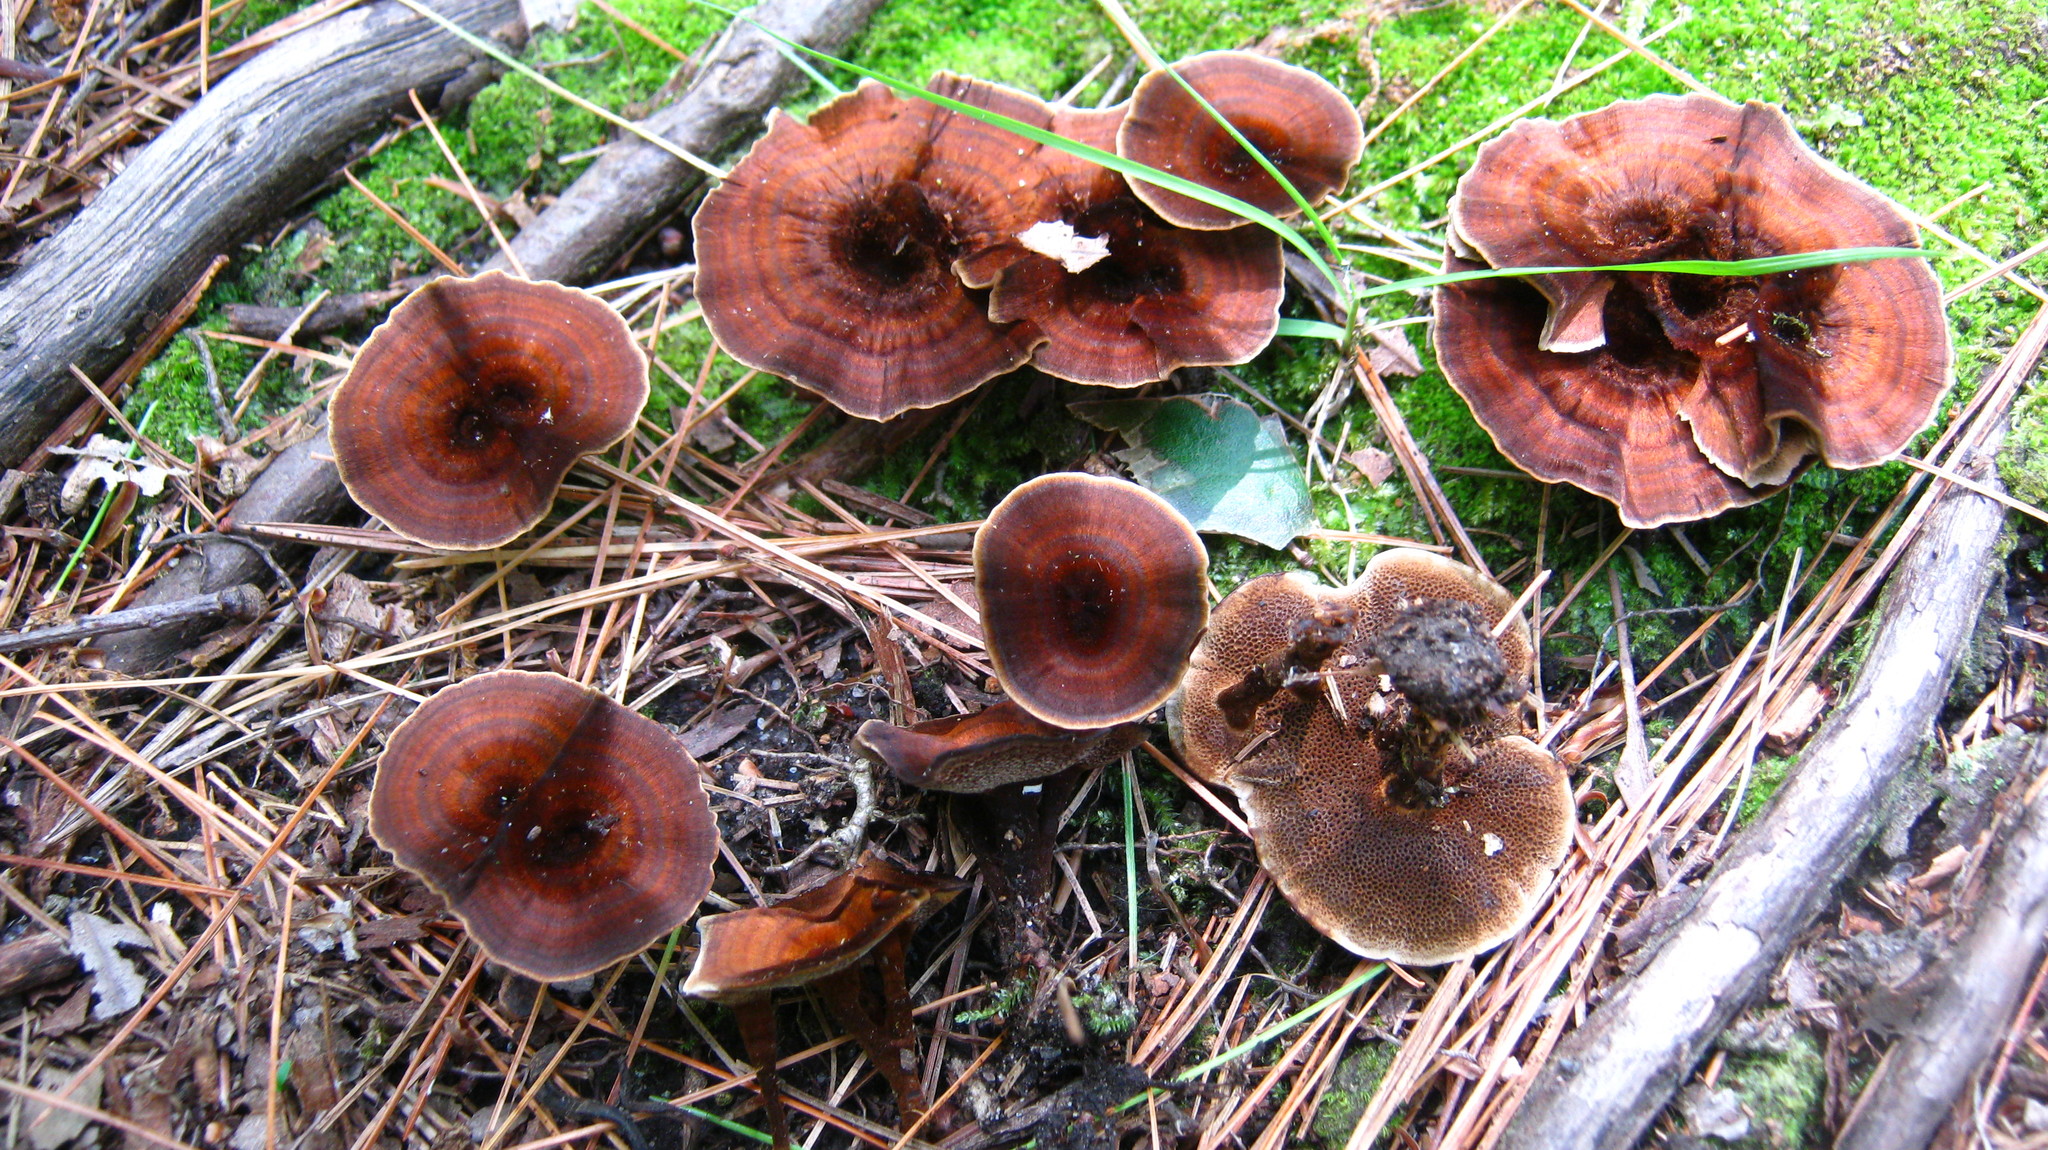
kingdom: Fungi
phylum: Basidiomycota
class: Agaricomycetes
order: Hymenochaetales
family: Hymenochaetaceae
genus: Coltricia
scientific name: Coltricia cinnamomea
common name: Shiny cinnamon polypore
